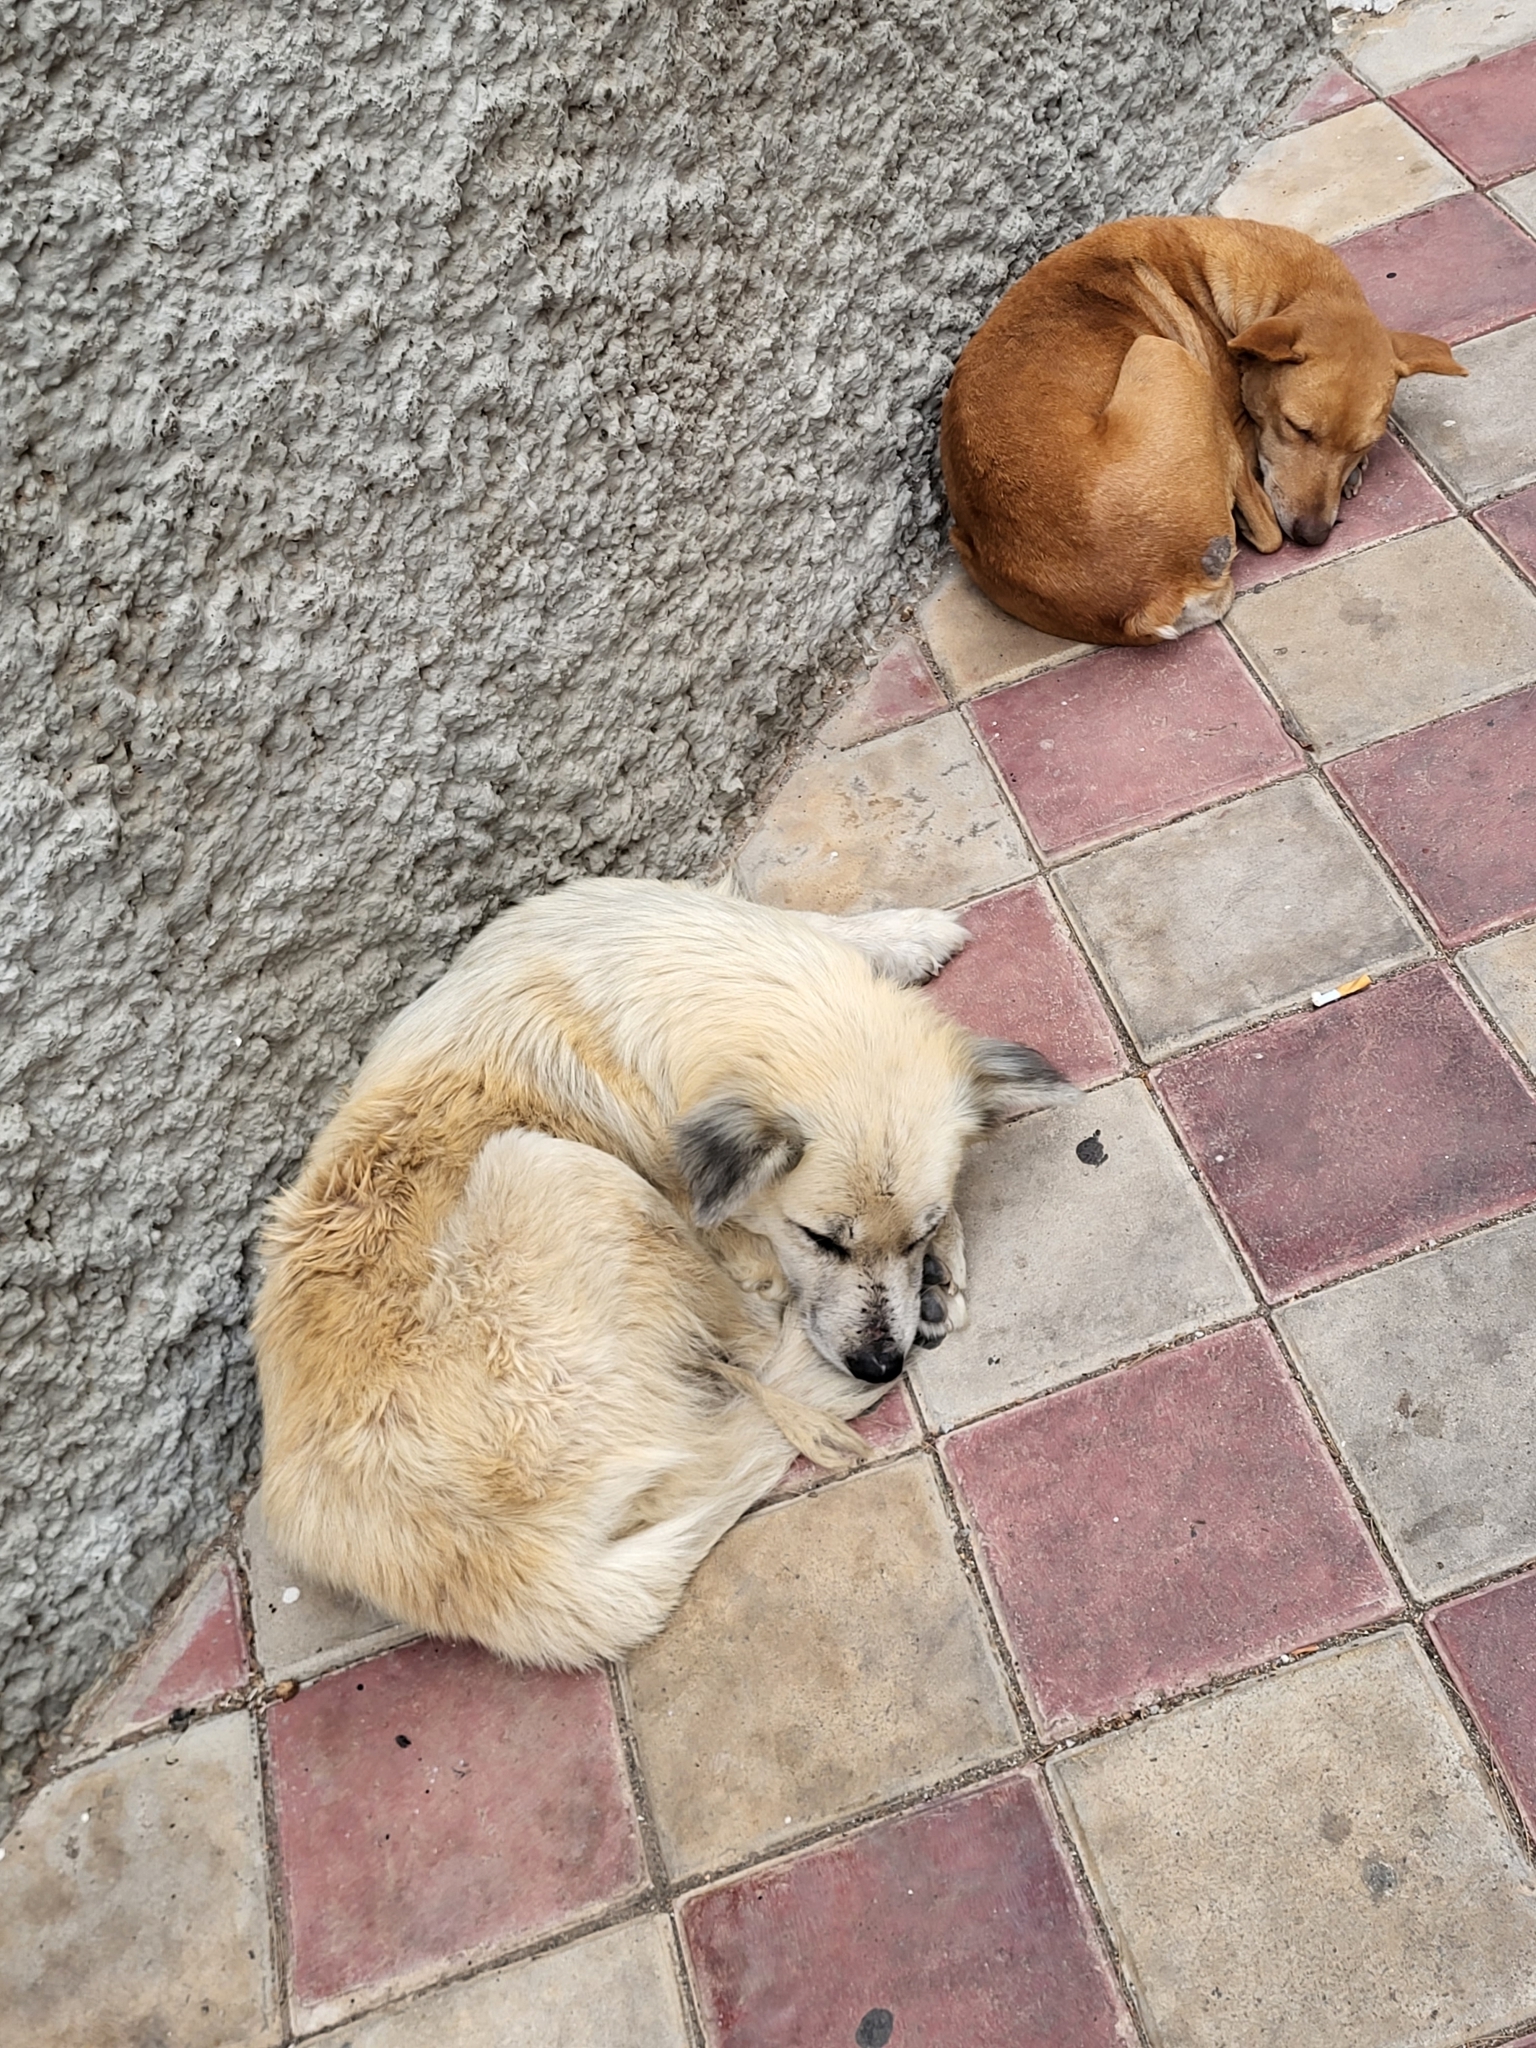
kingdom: Animalia
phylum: Chordata
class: Mammalia
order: Carnivora
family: Canidae
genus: Canis
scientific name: Canis lupus
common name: Gray wolf
